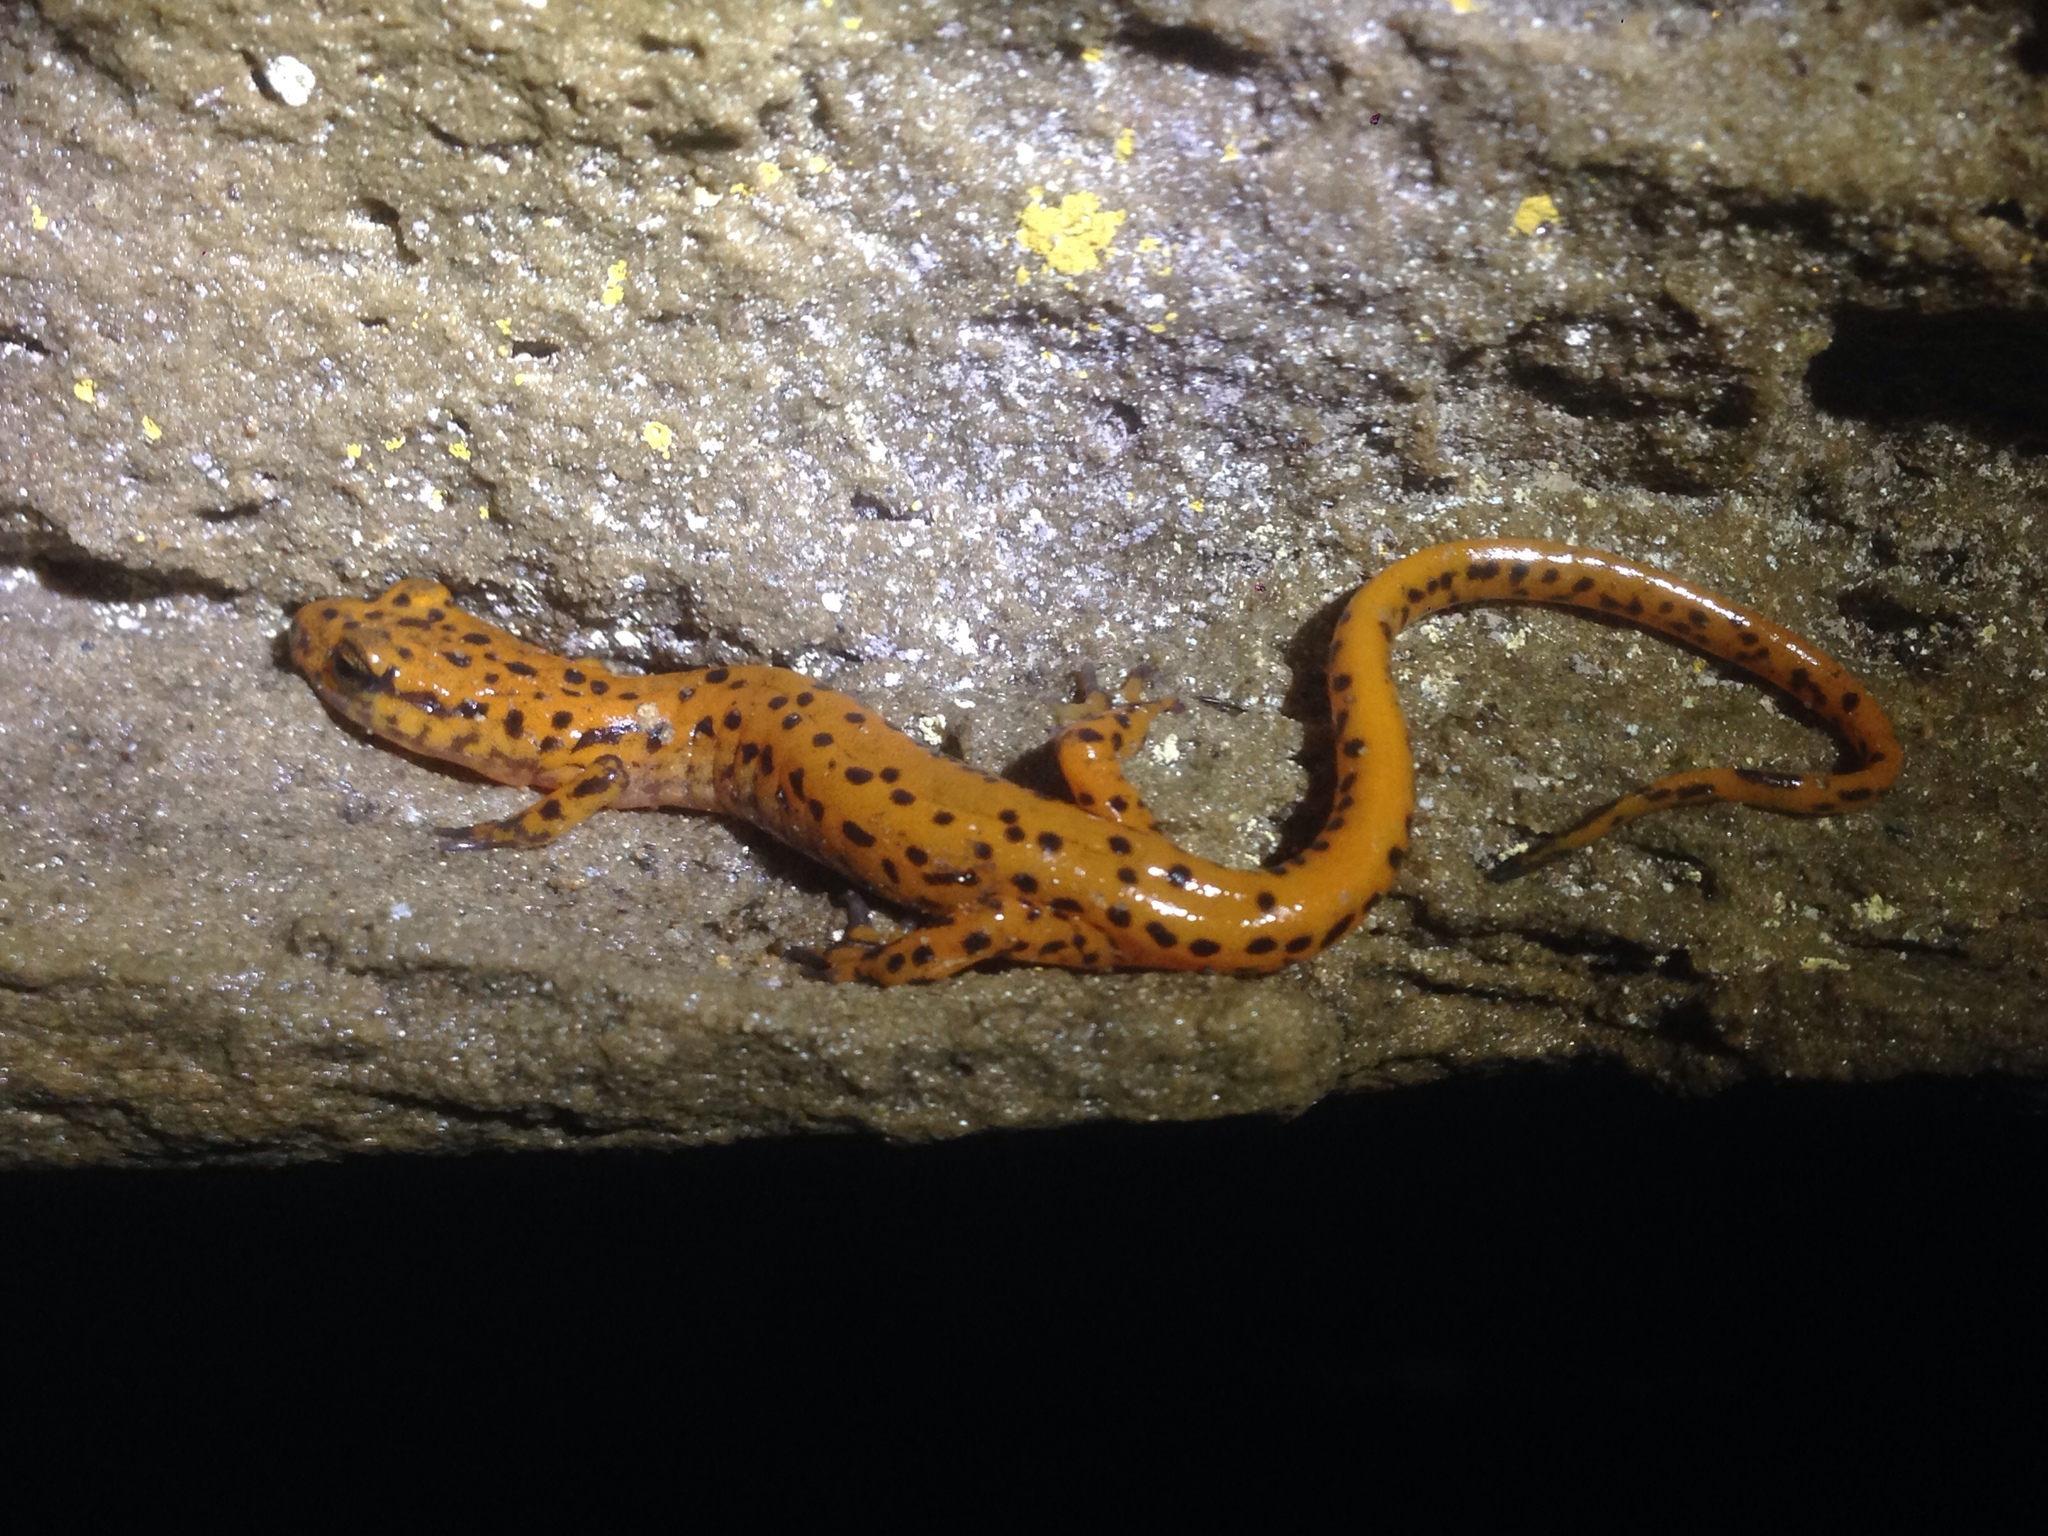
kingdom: Animalia
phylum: Chordata
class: Amphibia
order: Caudata
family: Plethodontidae
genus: Eurycea
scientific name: Eurycea lucifuga
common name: Cave salamander
